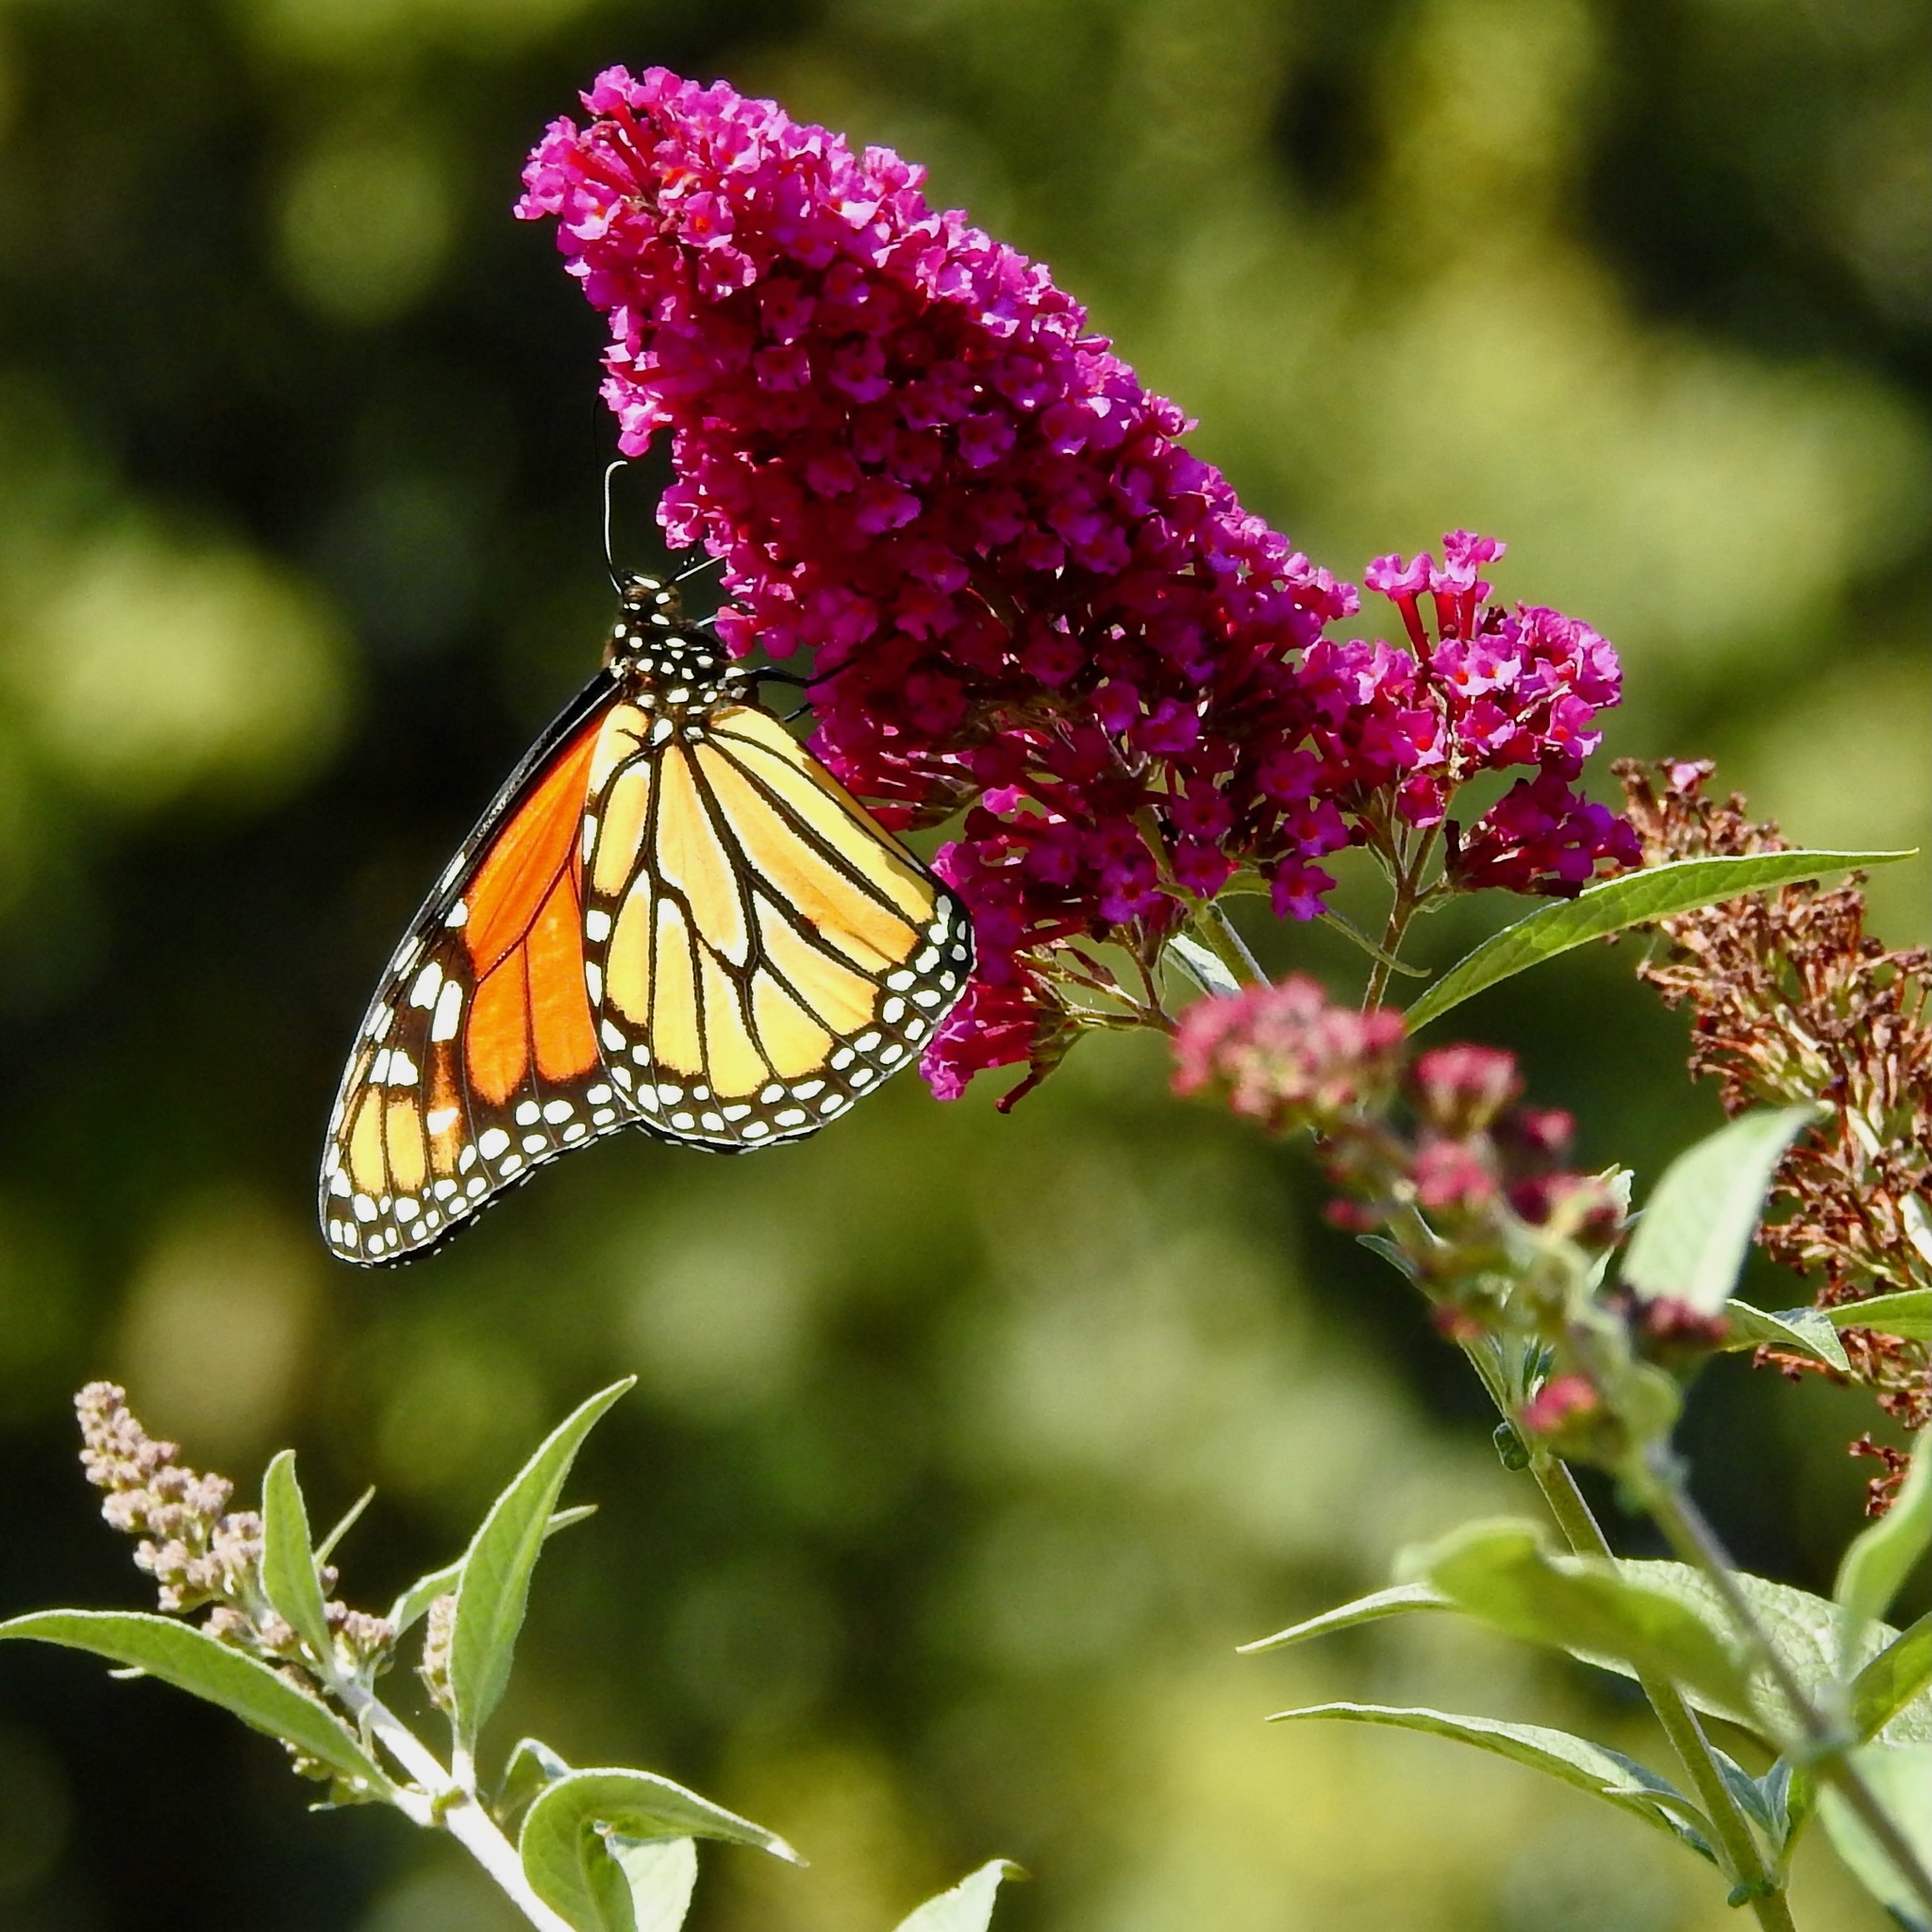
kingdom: Animalia
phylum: Arthropoda
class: Insecta
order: Lepidoptera
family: Nymphalidae
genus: Danaus
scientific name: Danaus plexippus
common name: Monarch
